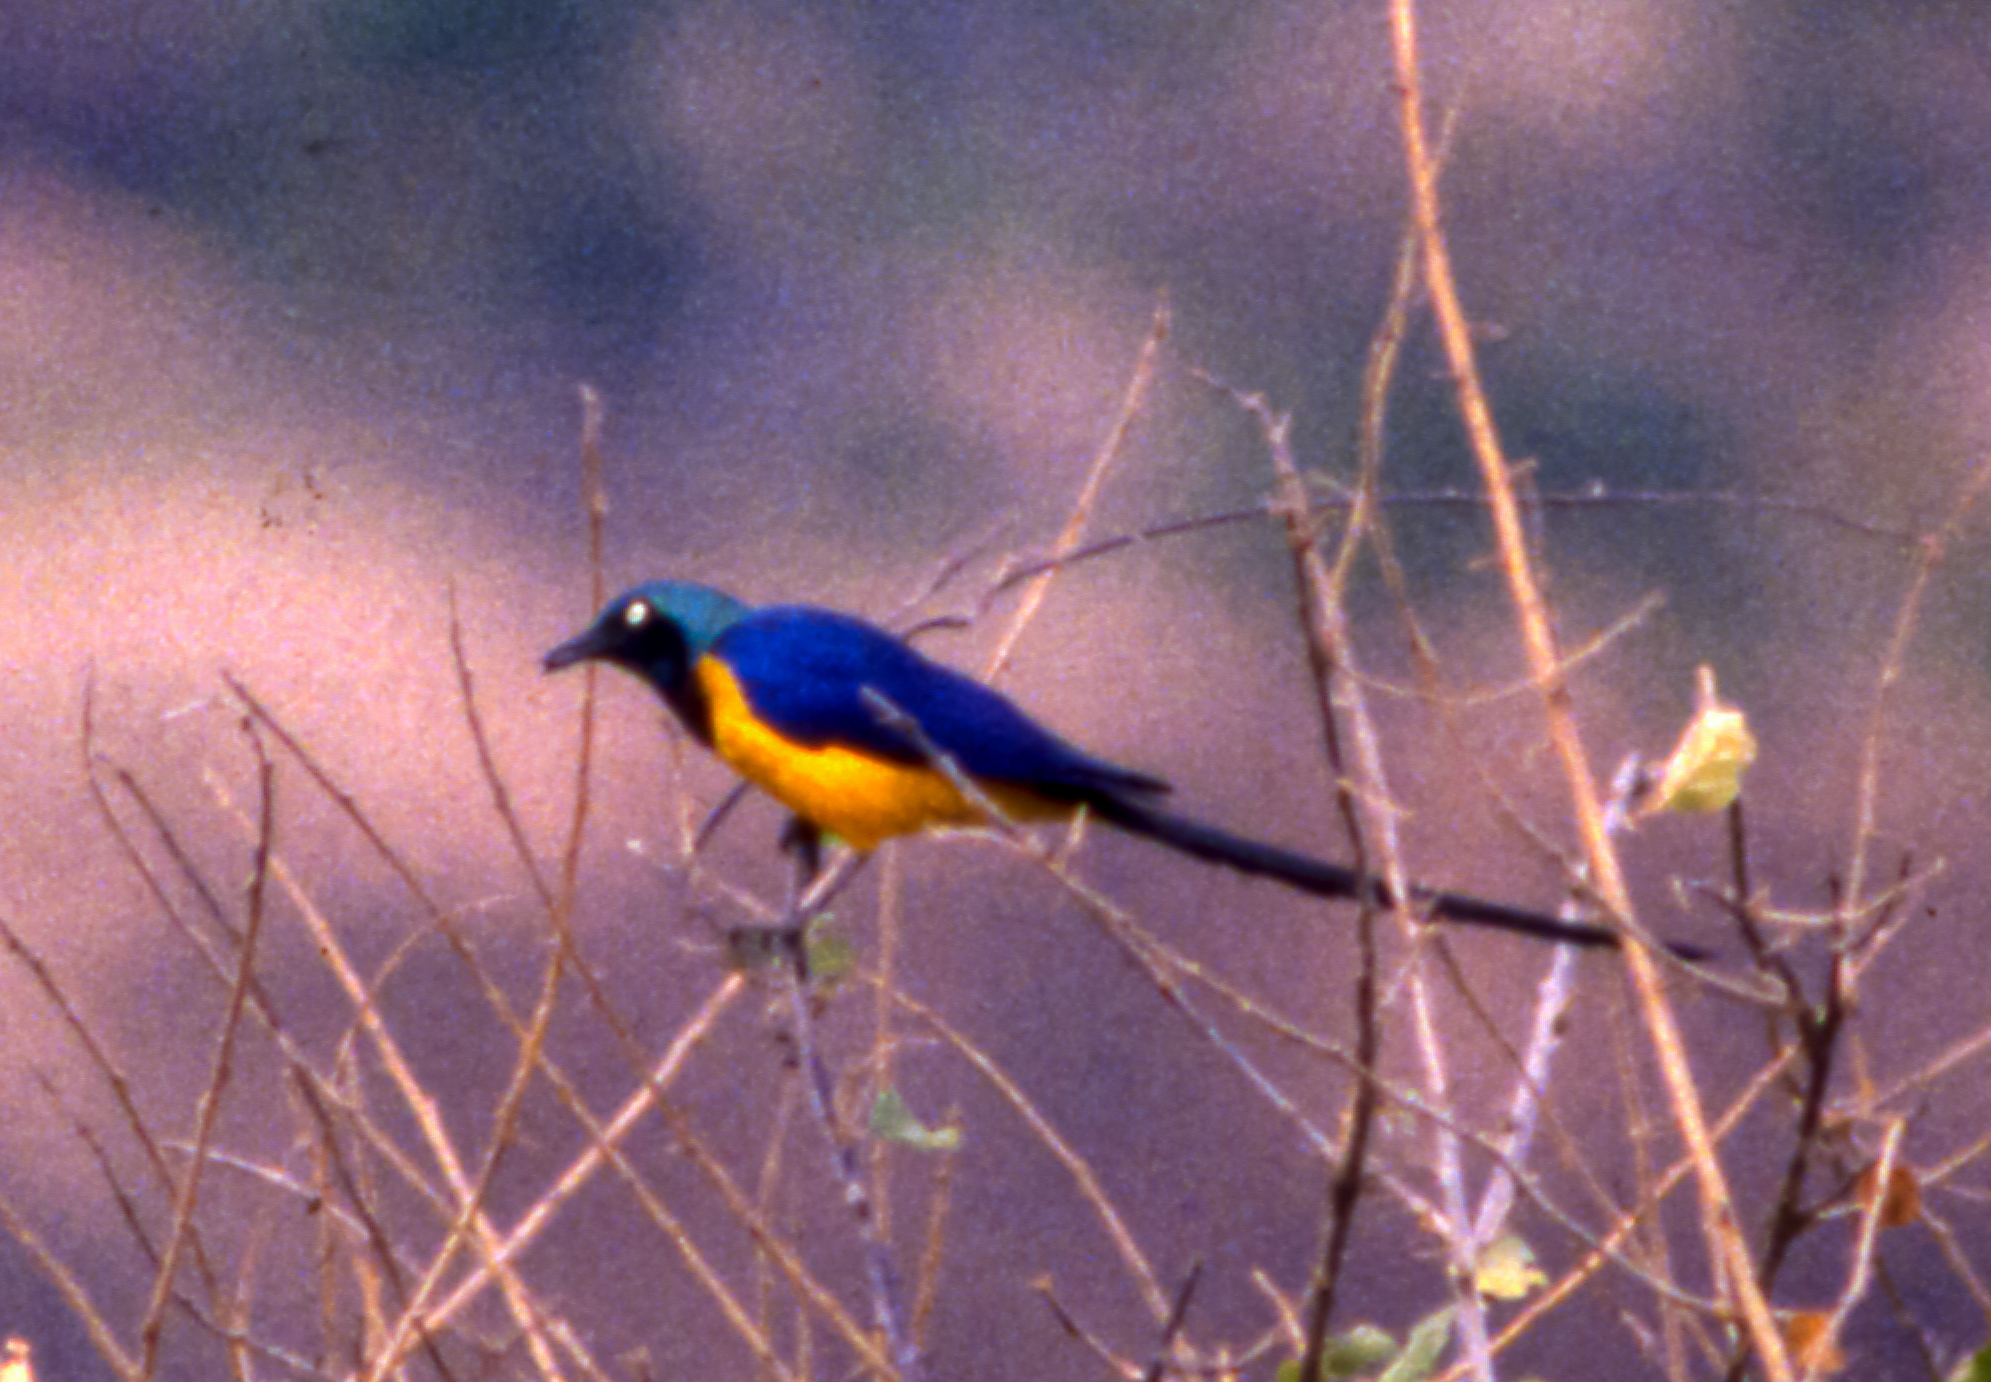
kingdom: Animalia
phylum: Chordata
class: Aves
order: Passeriformes
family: Sturnidae
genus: Lamprotornis
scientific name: Lamprotornis regius
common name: Golden-breasted starling
